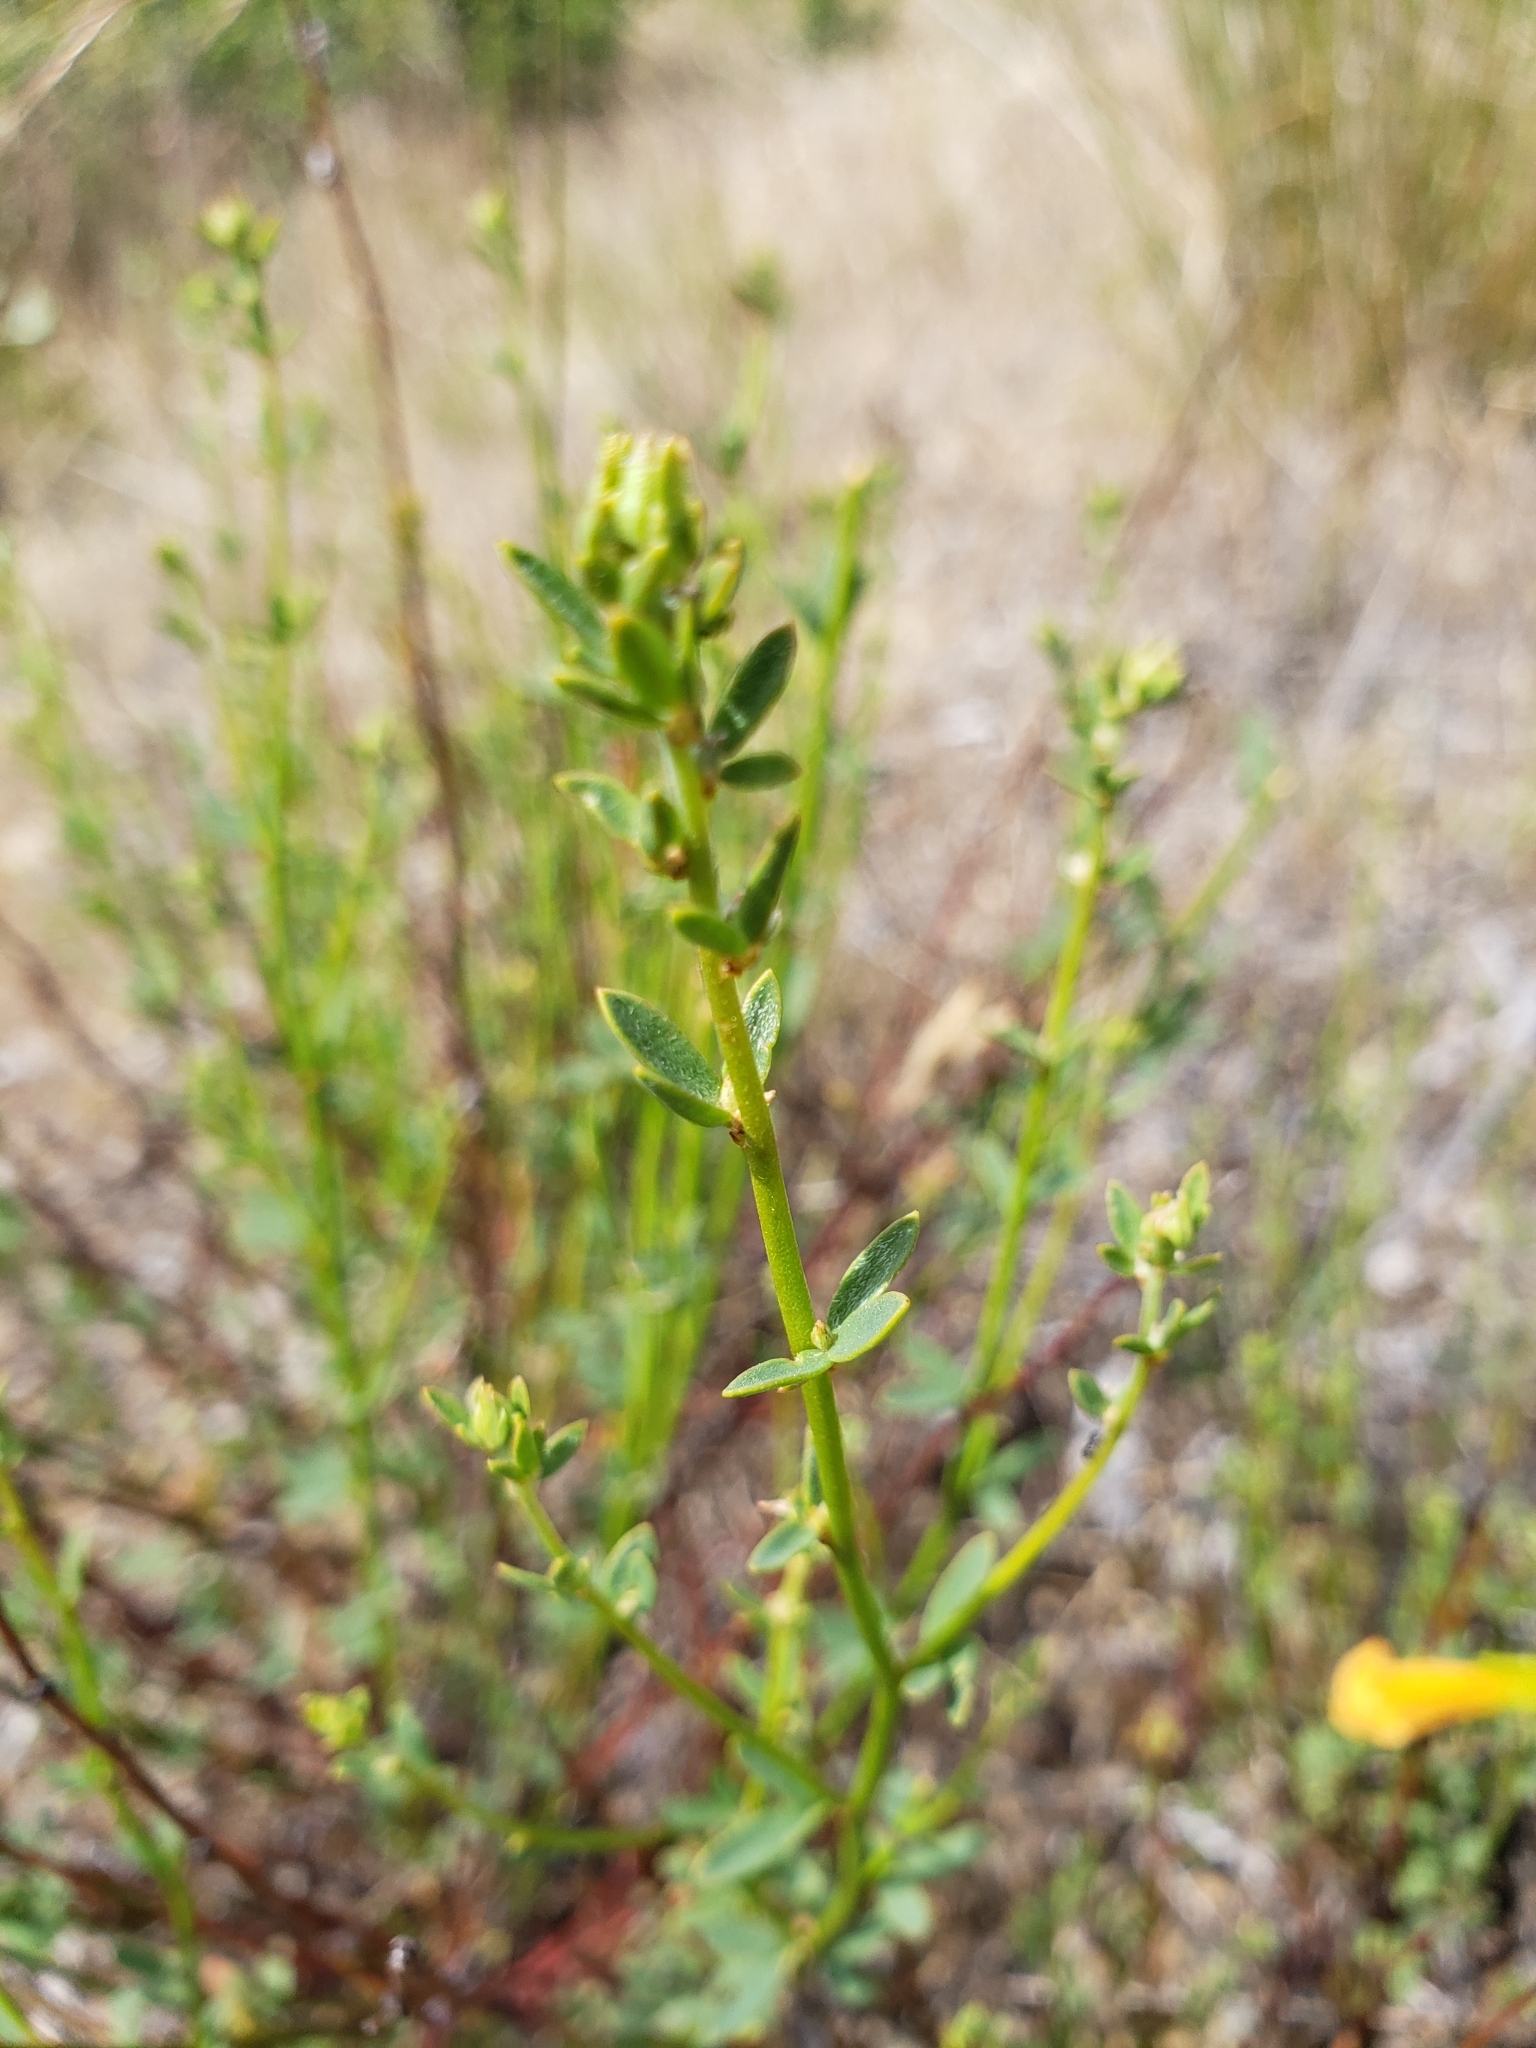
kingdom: Plantae
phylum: Tracheophyta
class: Magnoliopsida
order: Fabales
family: Fabaceae
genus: Acmispon
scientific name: Acmispon glaber
